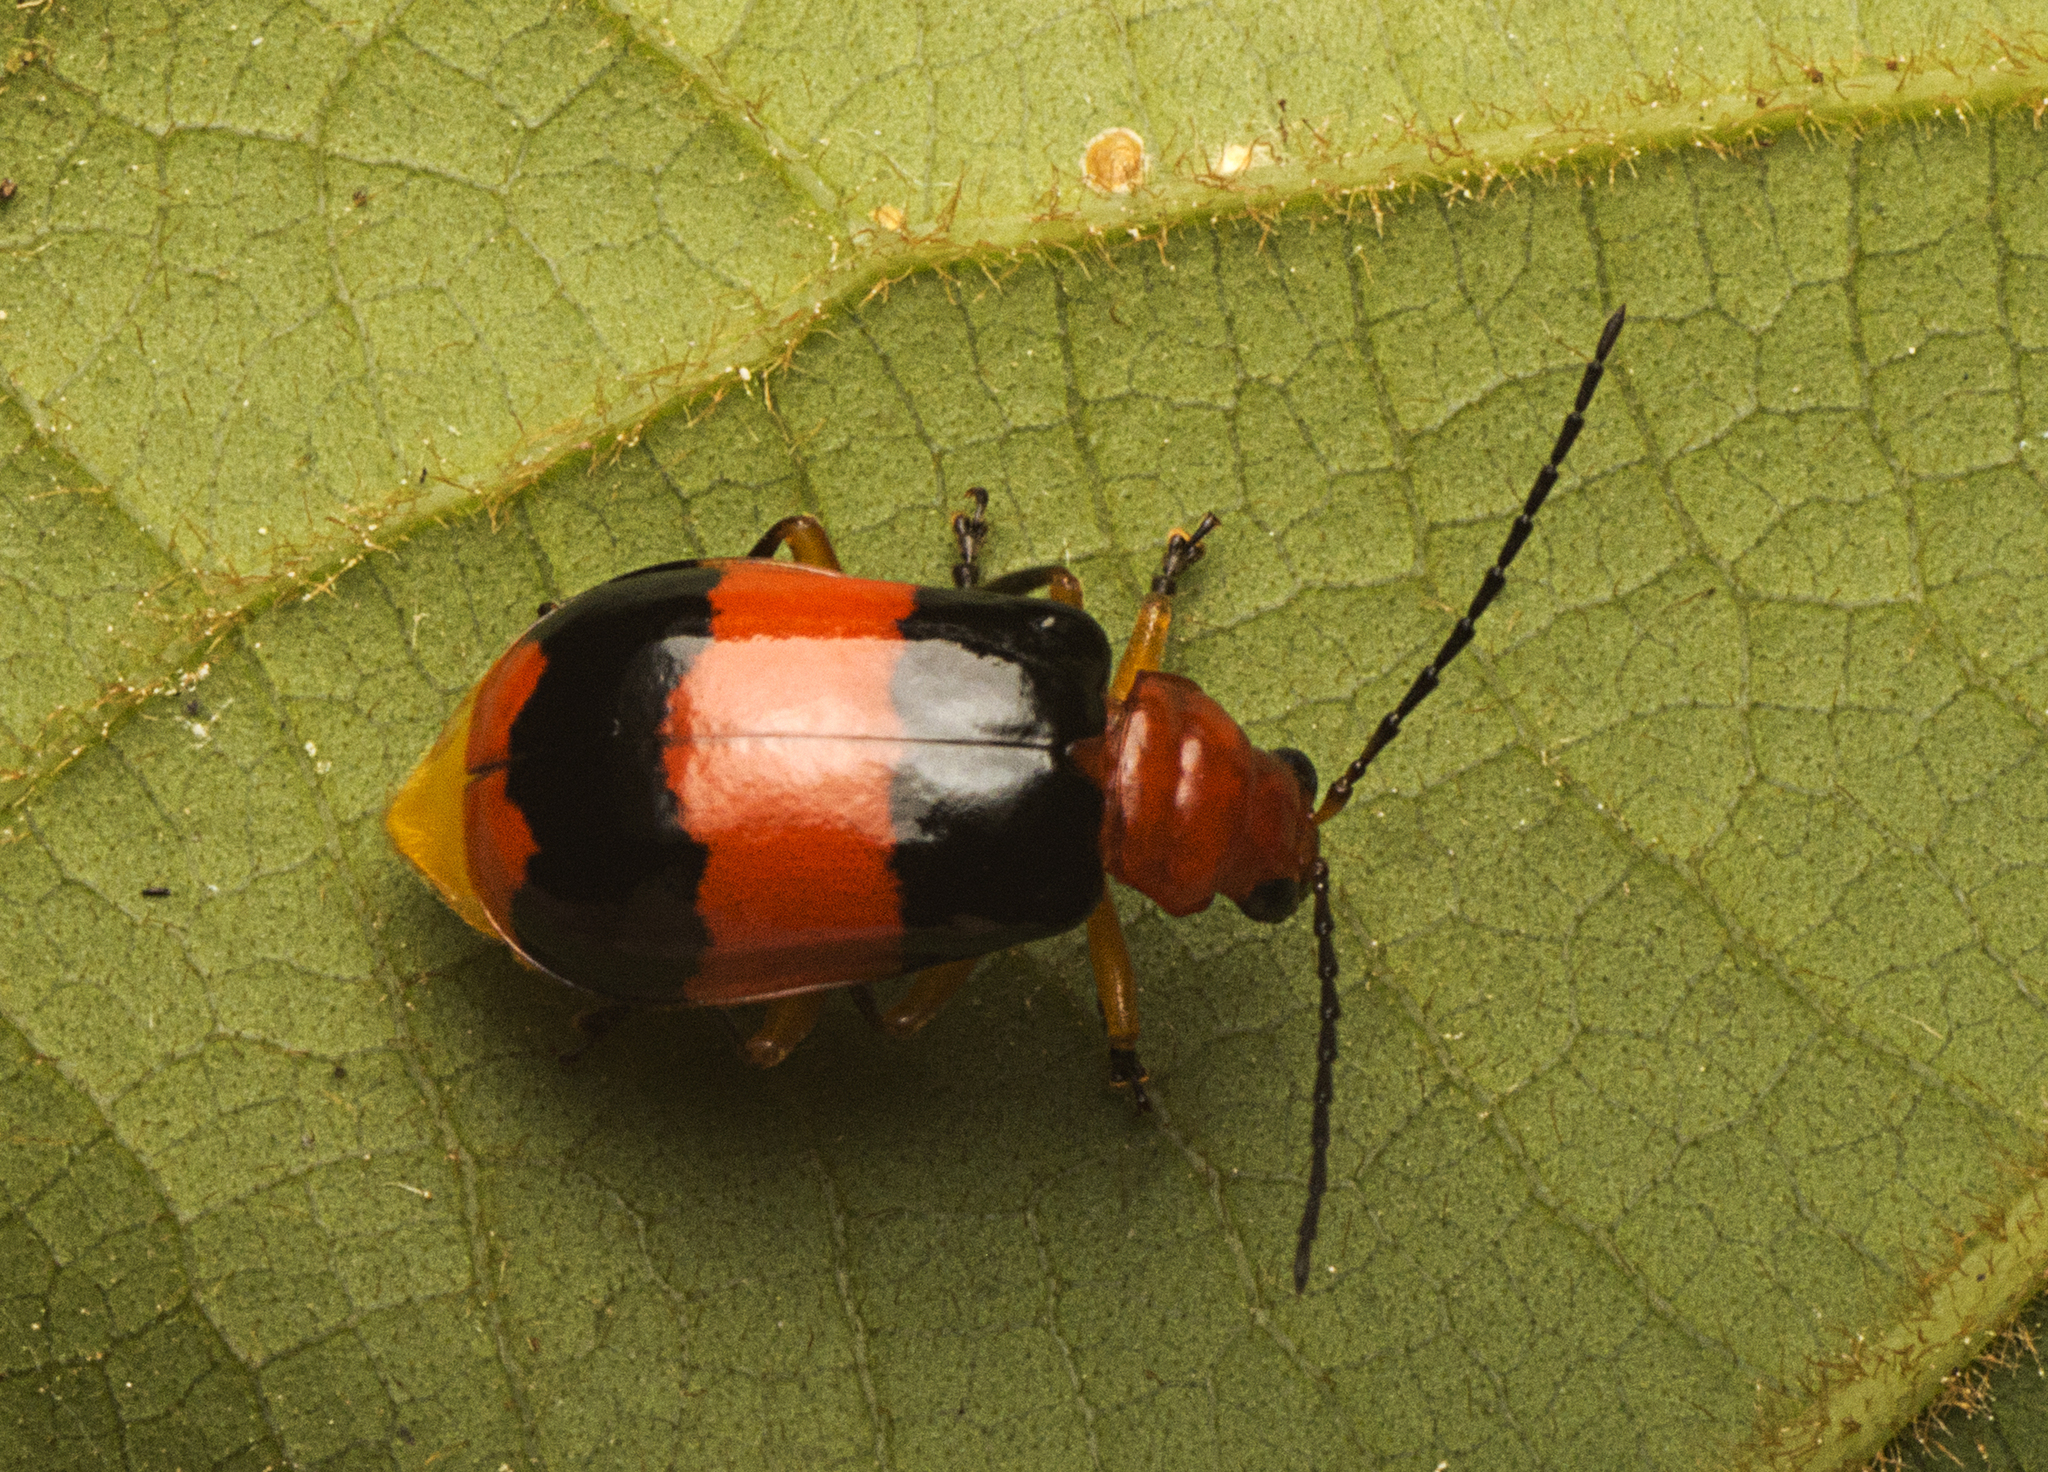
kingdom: Animalia
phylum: Arthropoda
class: Insecta
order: Coleoptera
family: Chrysomelidae
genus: Aulacophora
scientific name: Aulacophora
